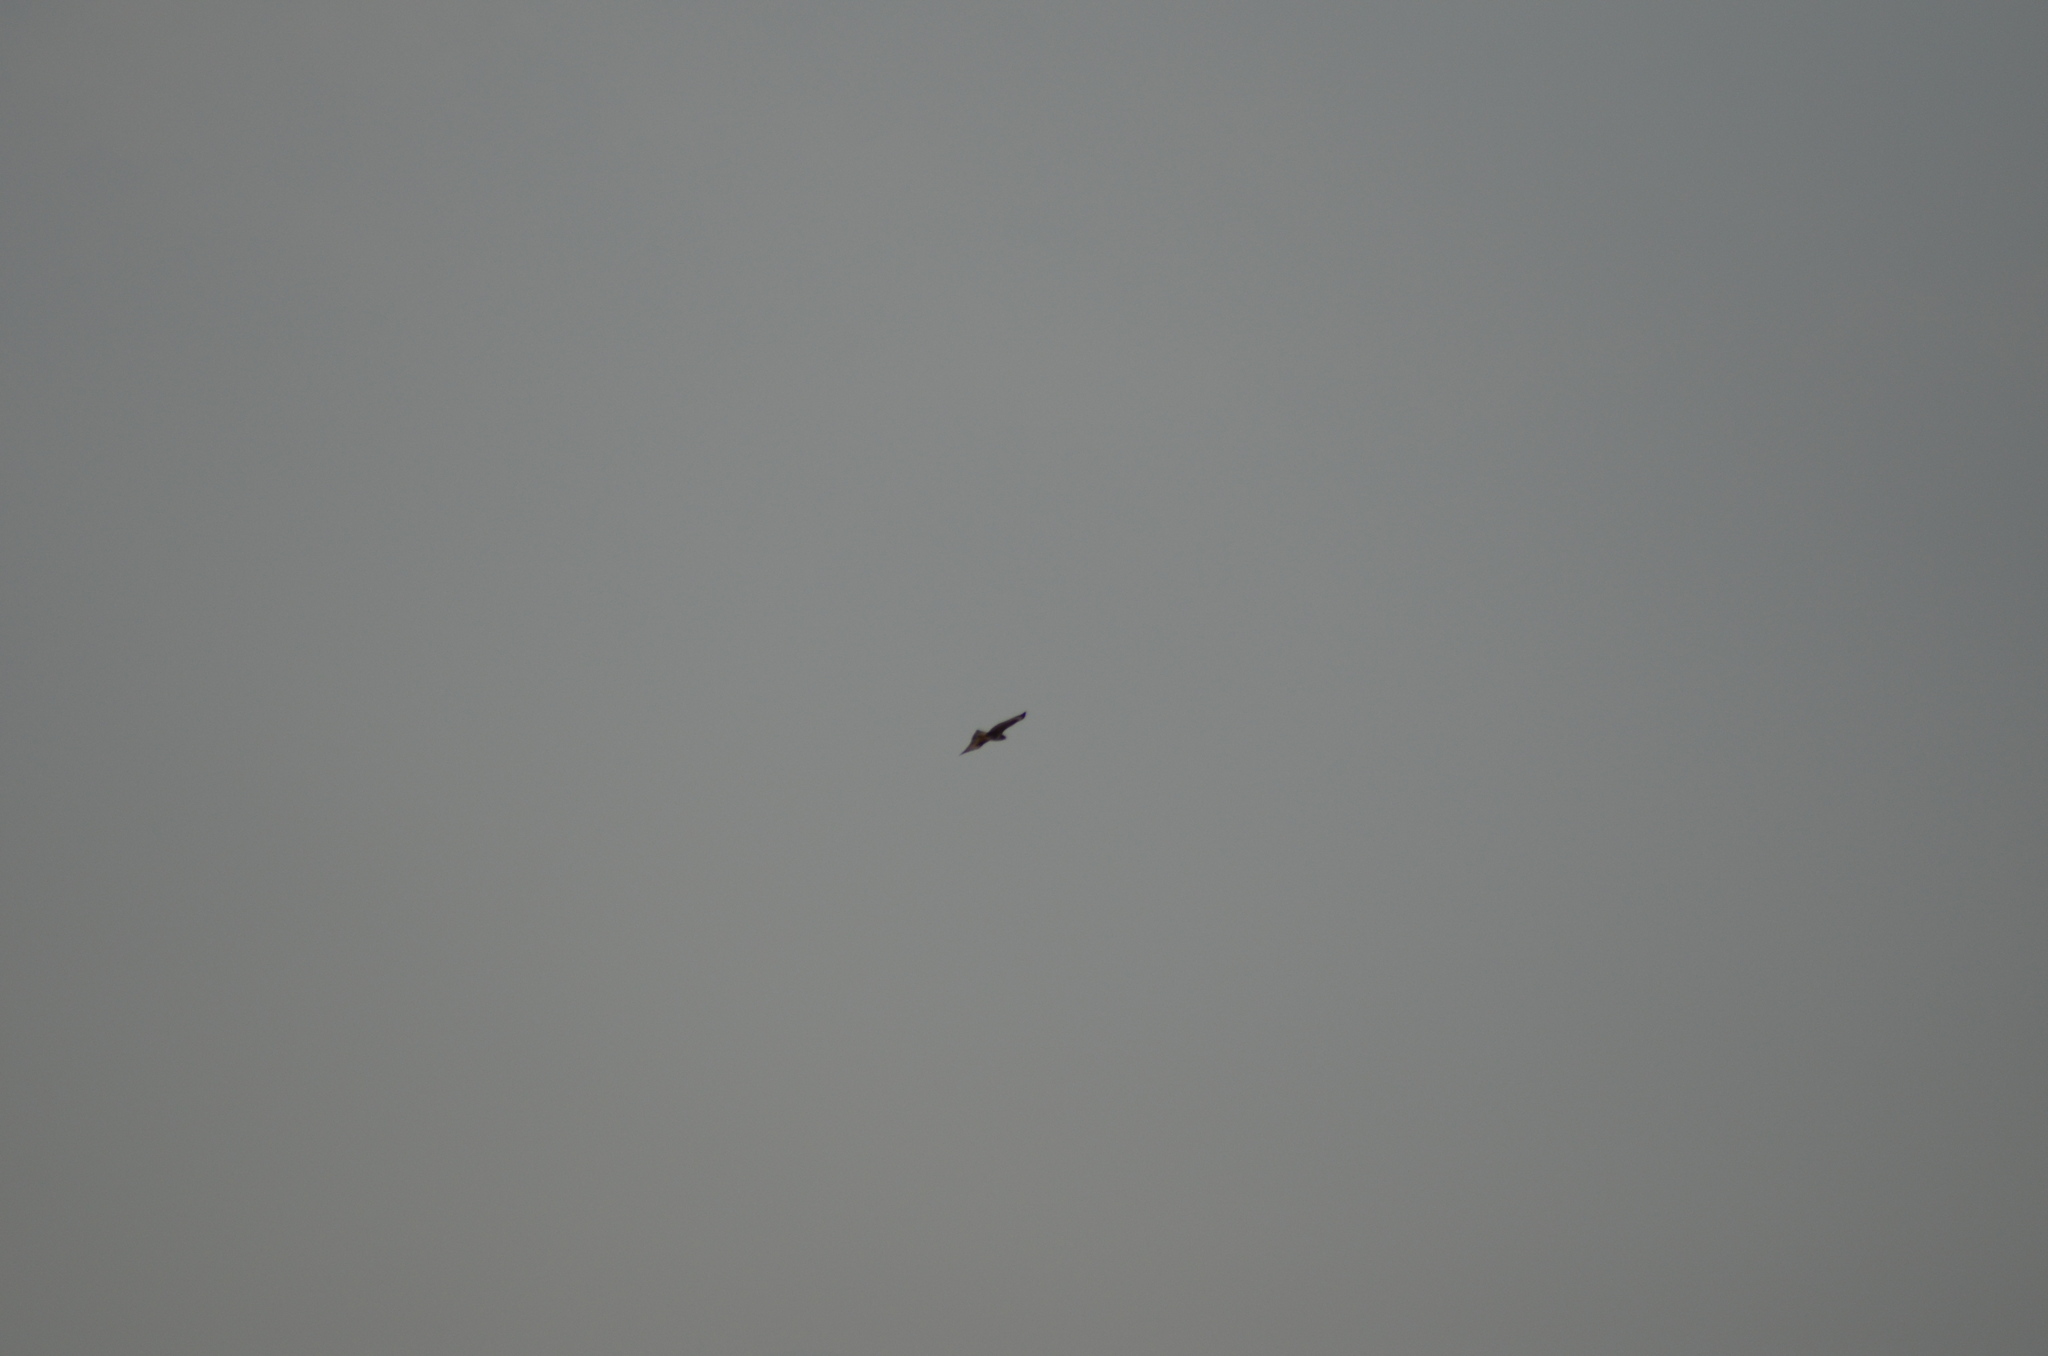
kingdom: Animalia
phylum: Chordata
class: Aves
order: Accipitriformes
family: Accipitridae
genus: Buteo
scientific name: Buteo buteo
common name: Common buzzard
